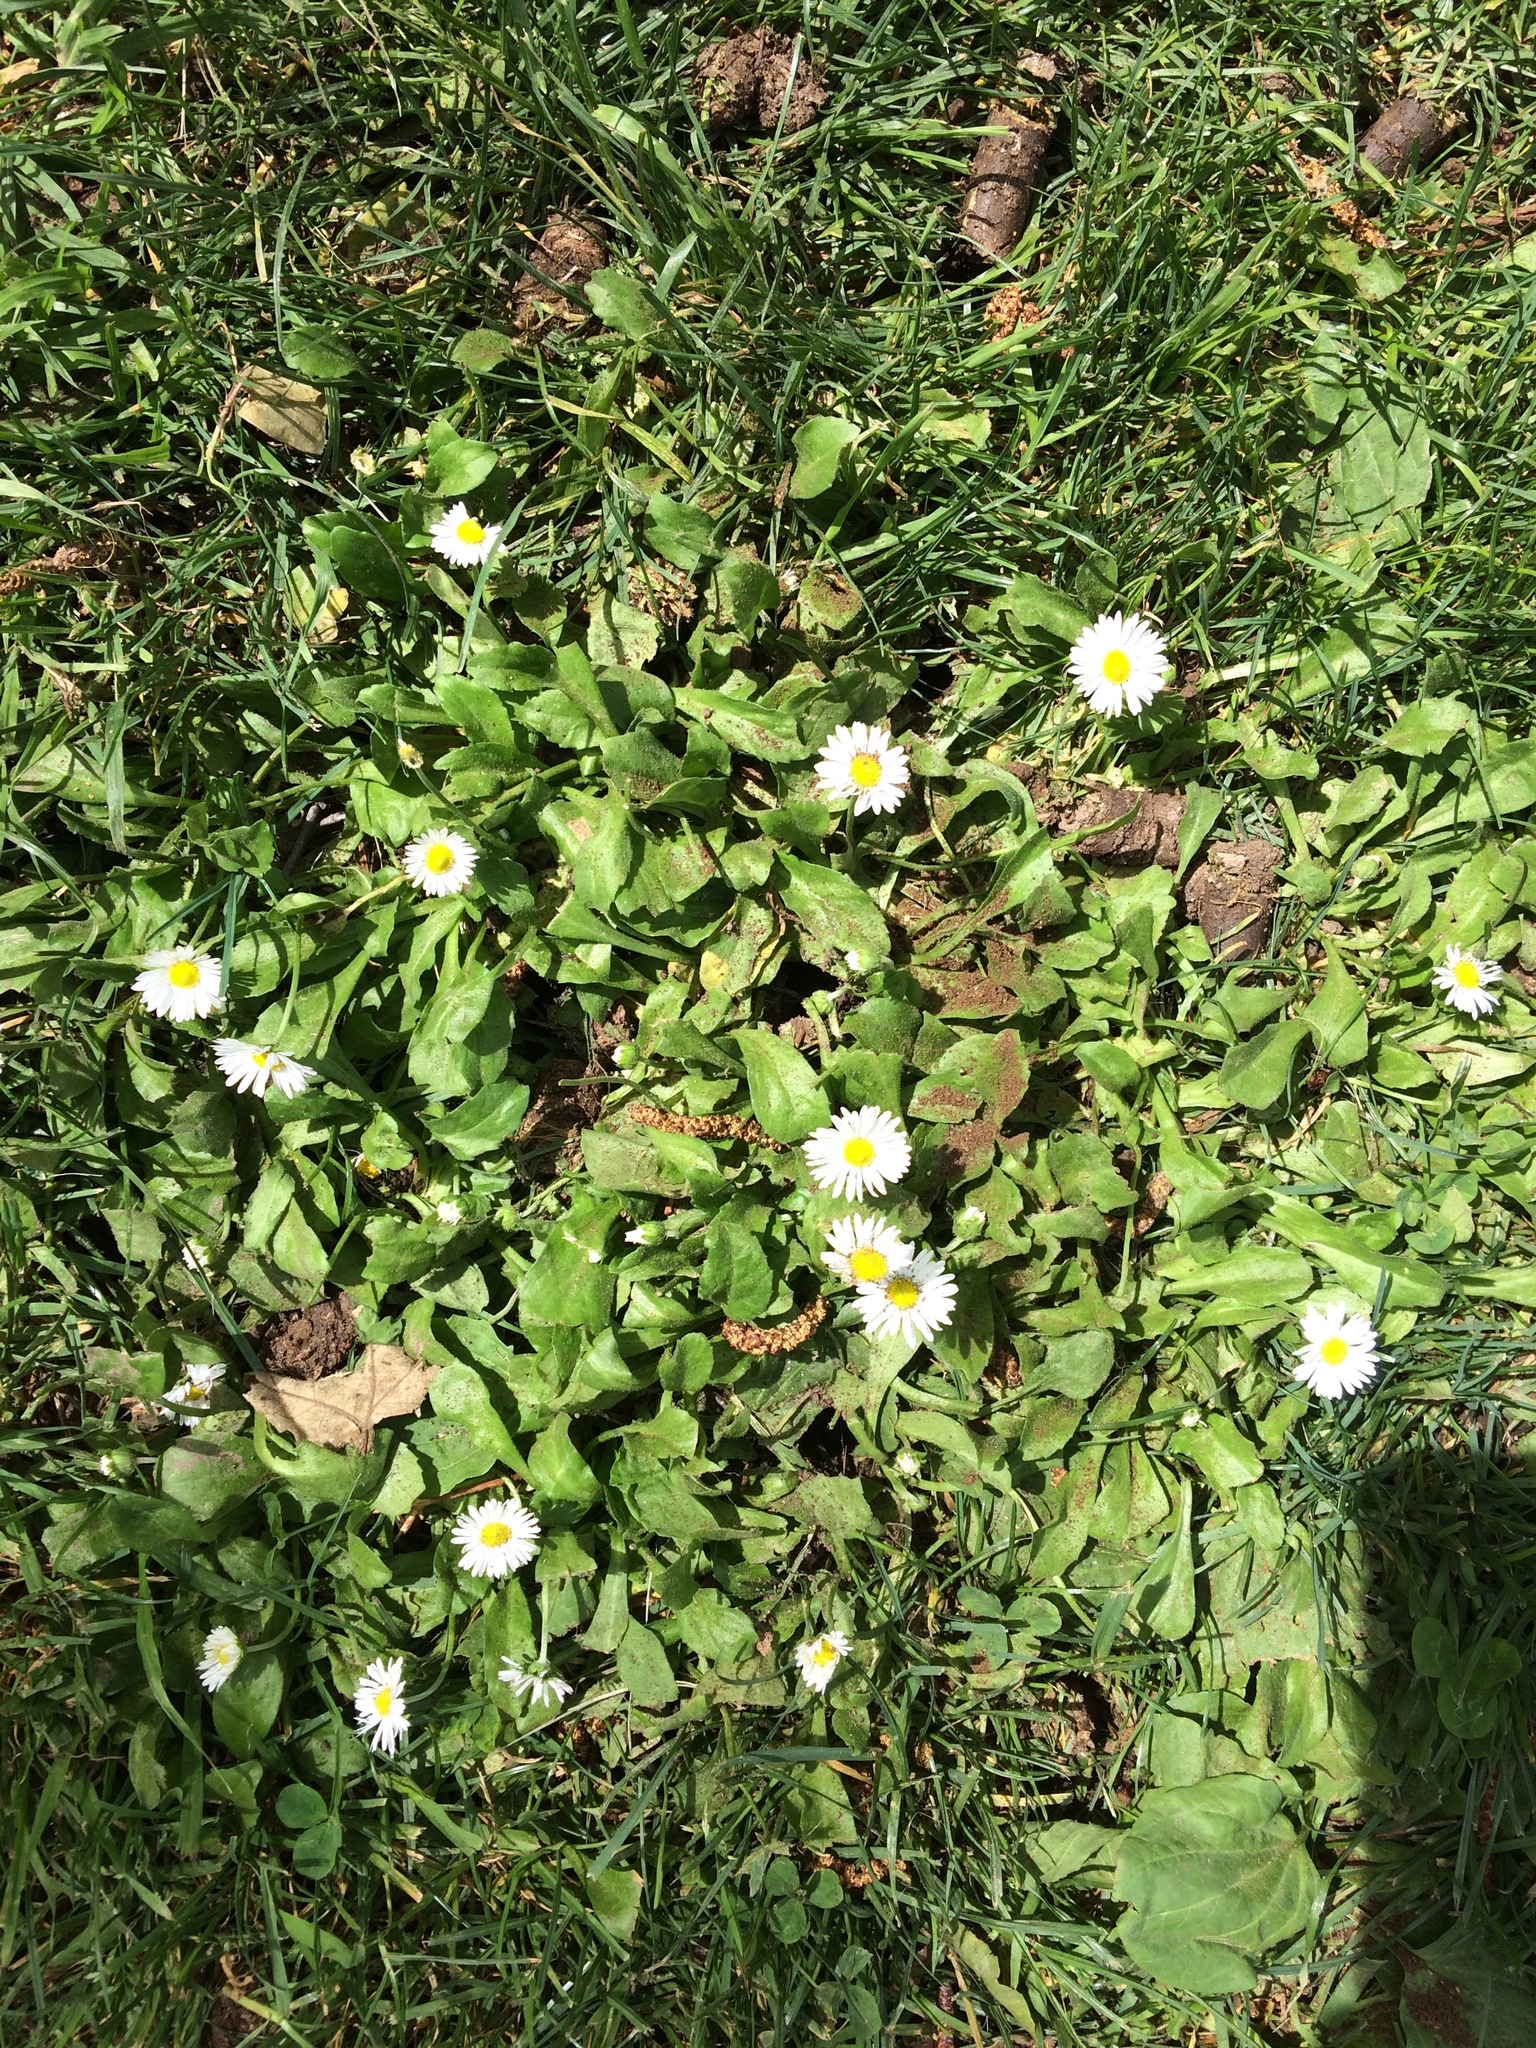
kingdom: Plantae
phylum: Tracheophyta
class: Magnoliopsida
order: Asterales
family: Asteraceae
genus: Bellis
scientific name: Bellis perennis
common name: Lawndaisy
